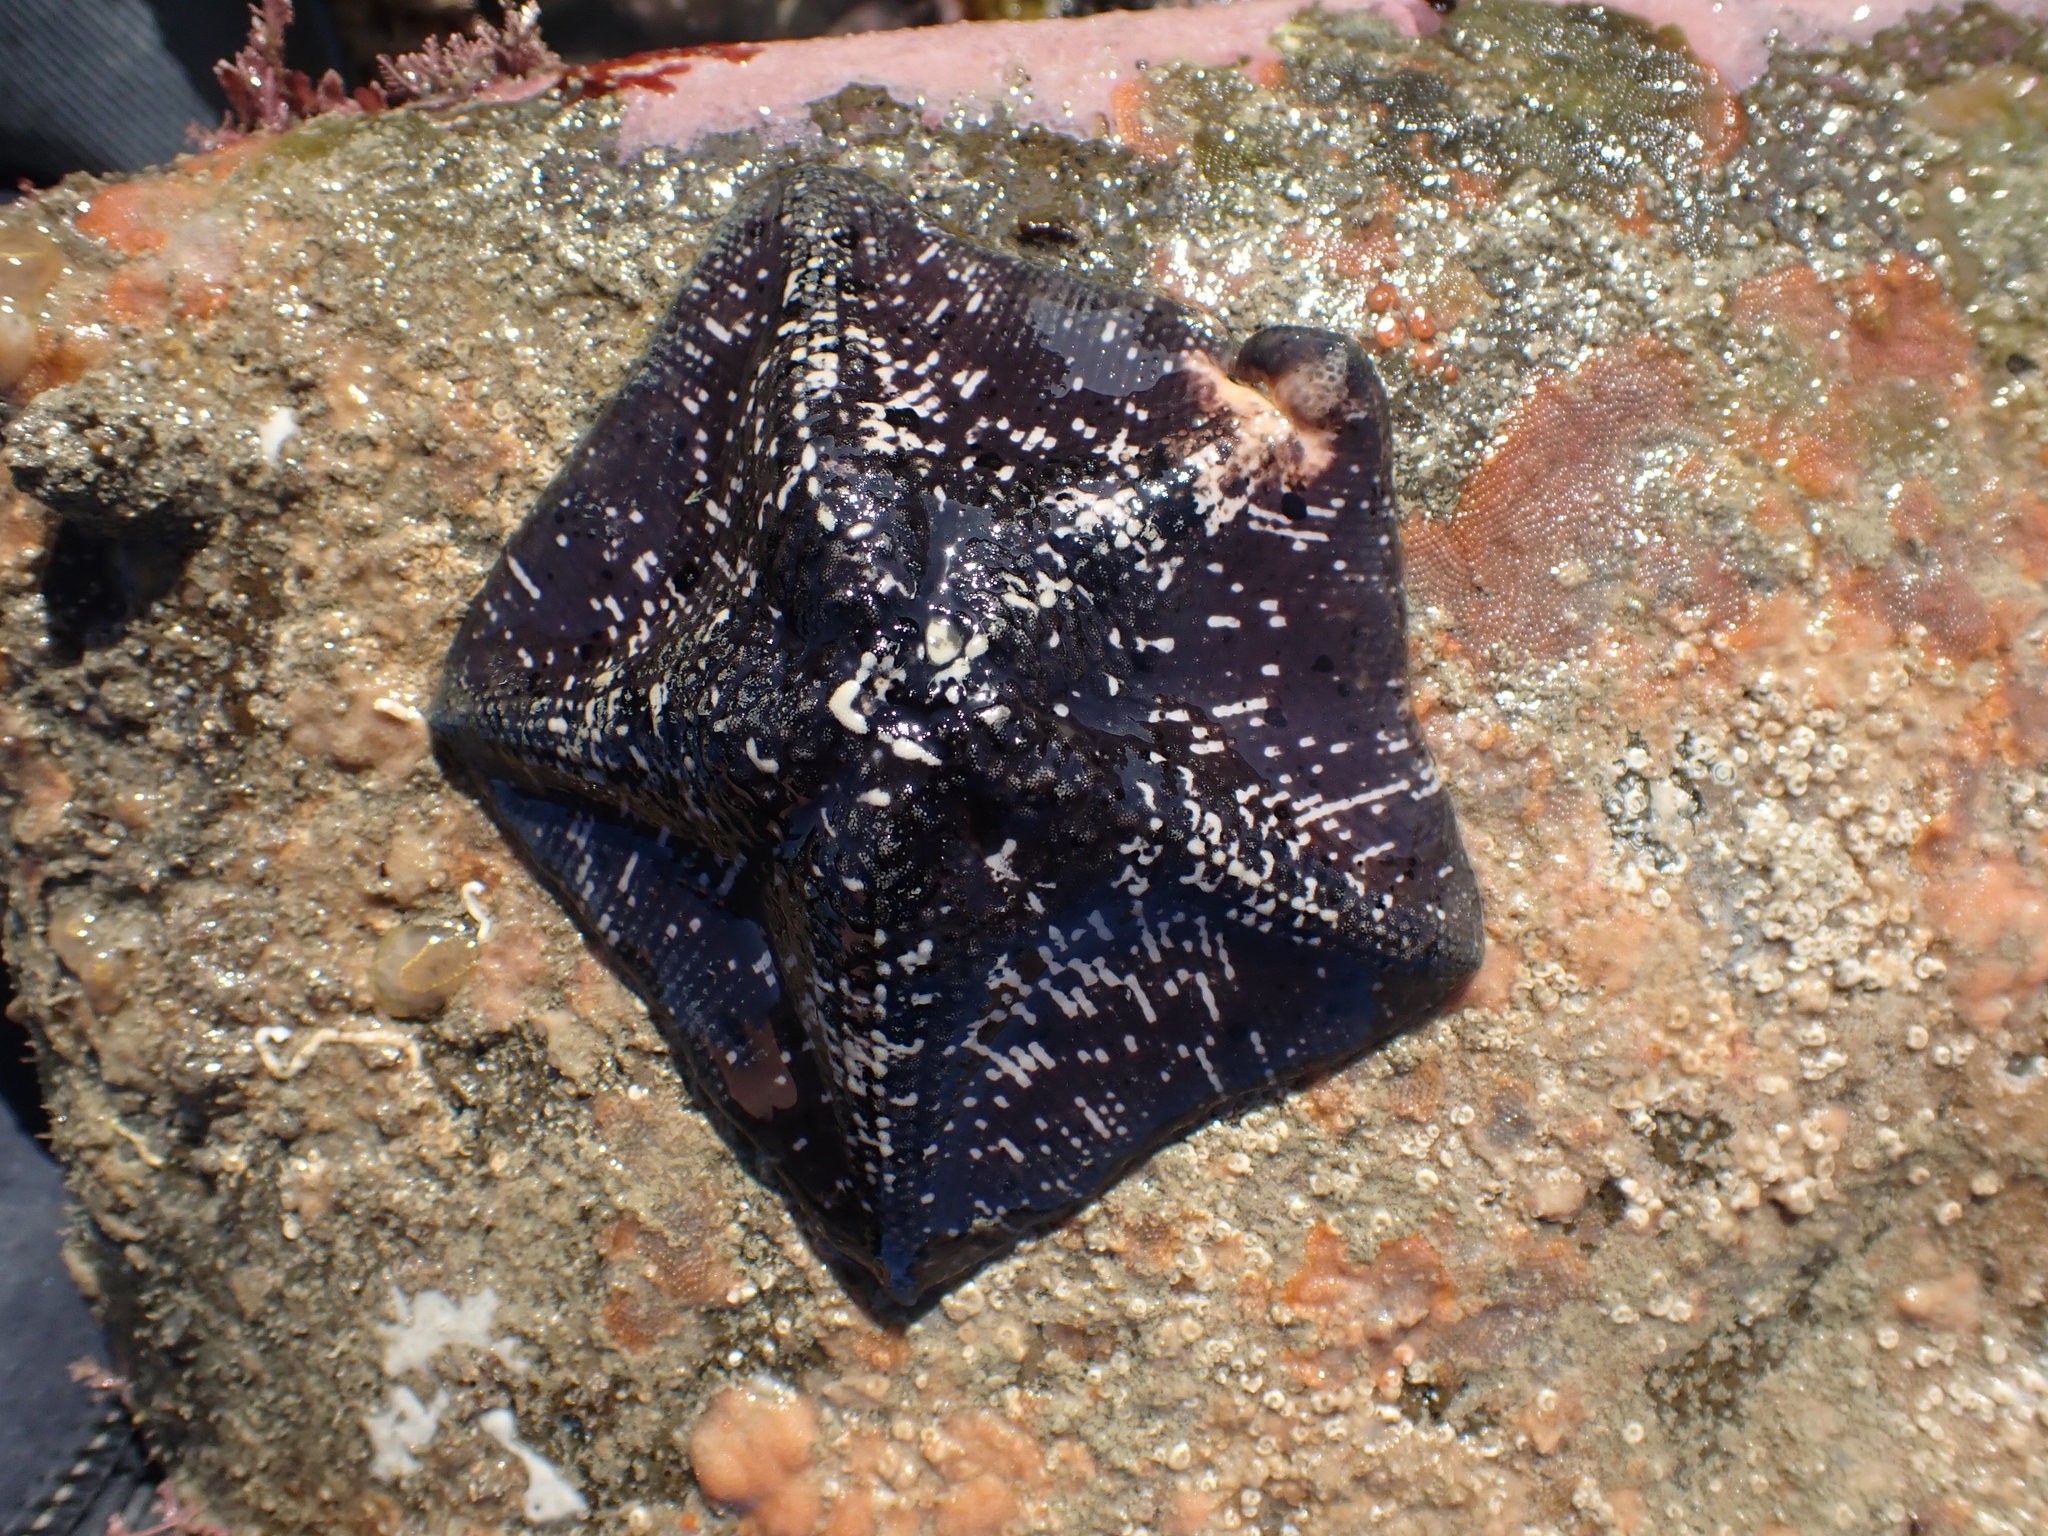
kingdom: Animalia
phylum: Echinodermata
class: Asteroidea
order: Valvatida
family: Asterinidae
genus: Stegnaster
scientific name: Stegnaster inflatus
